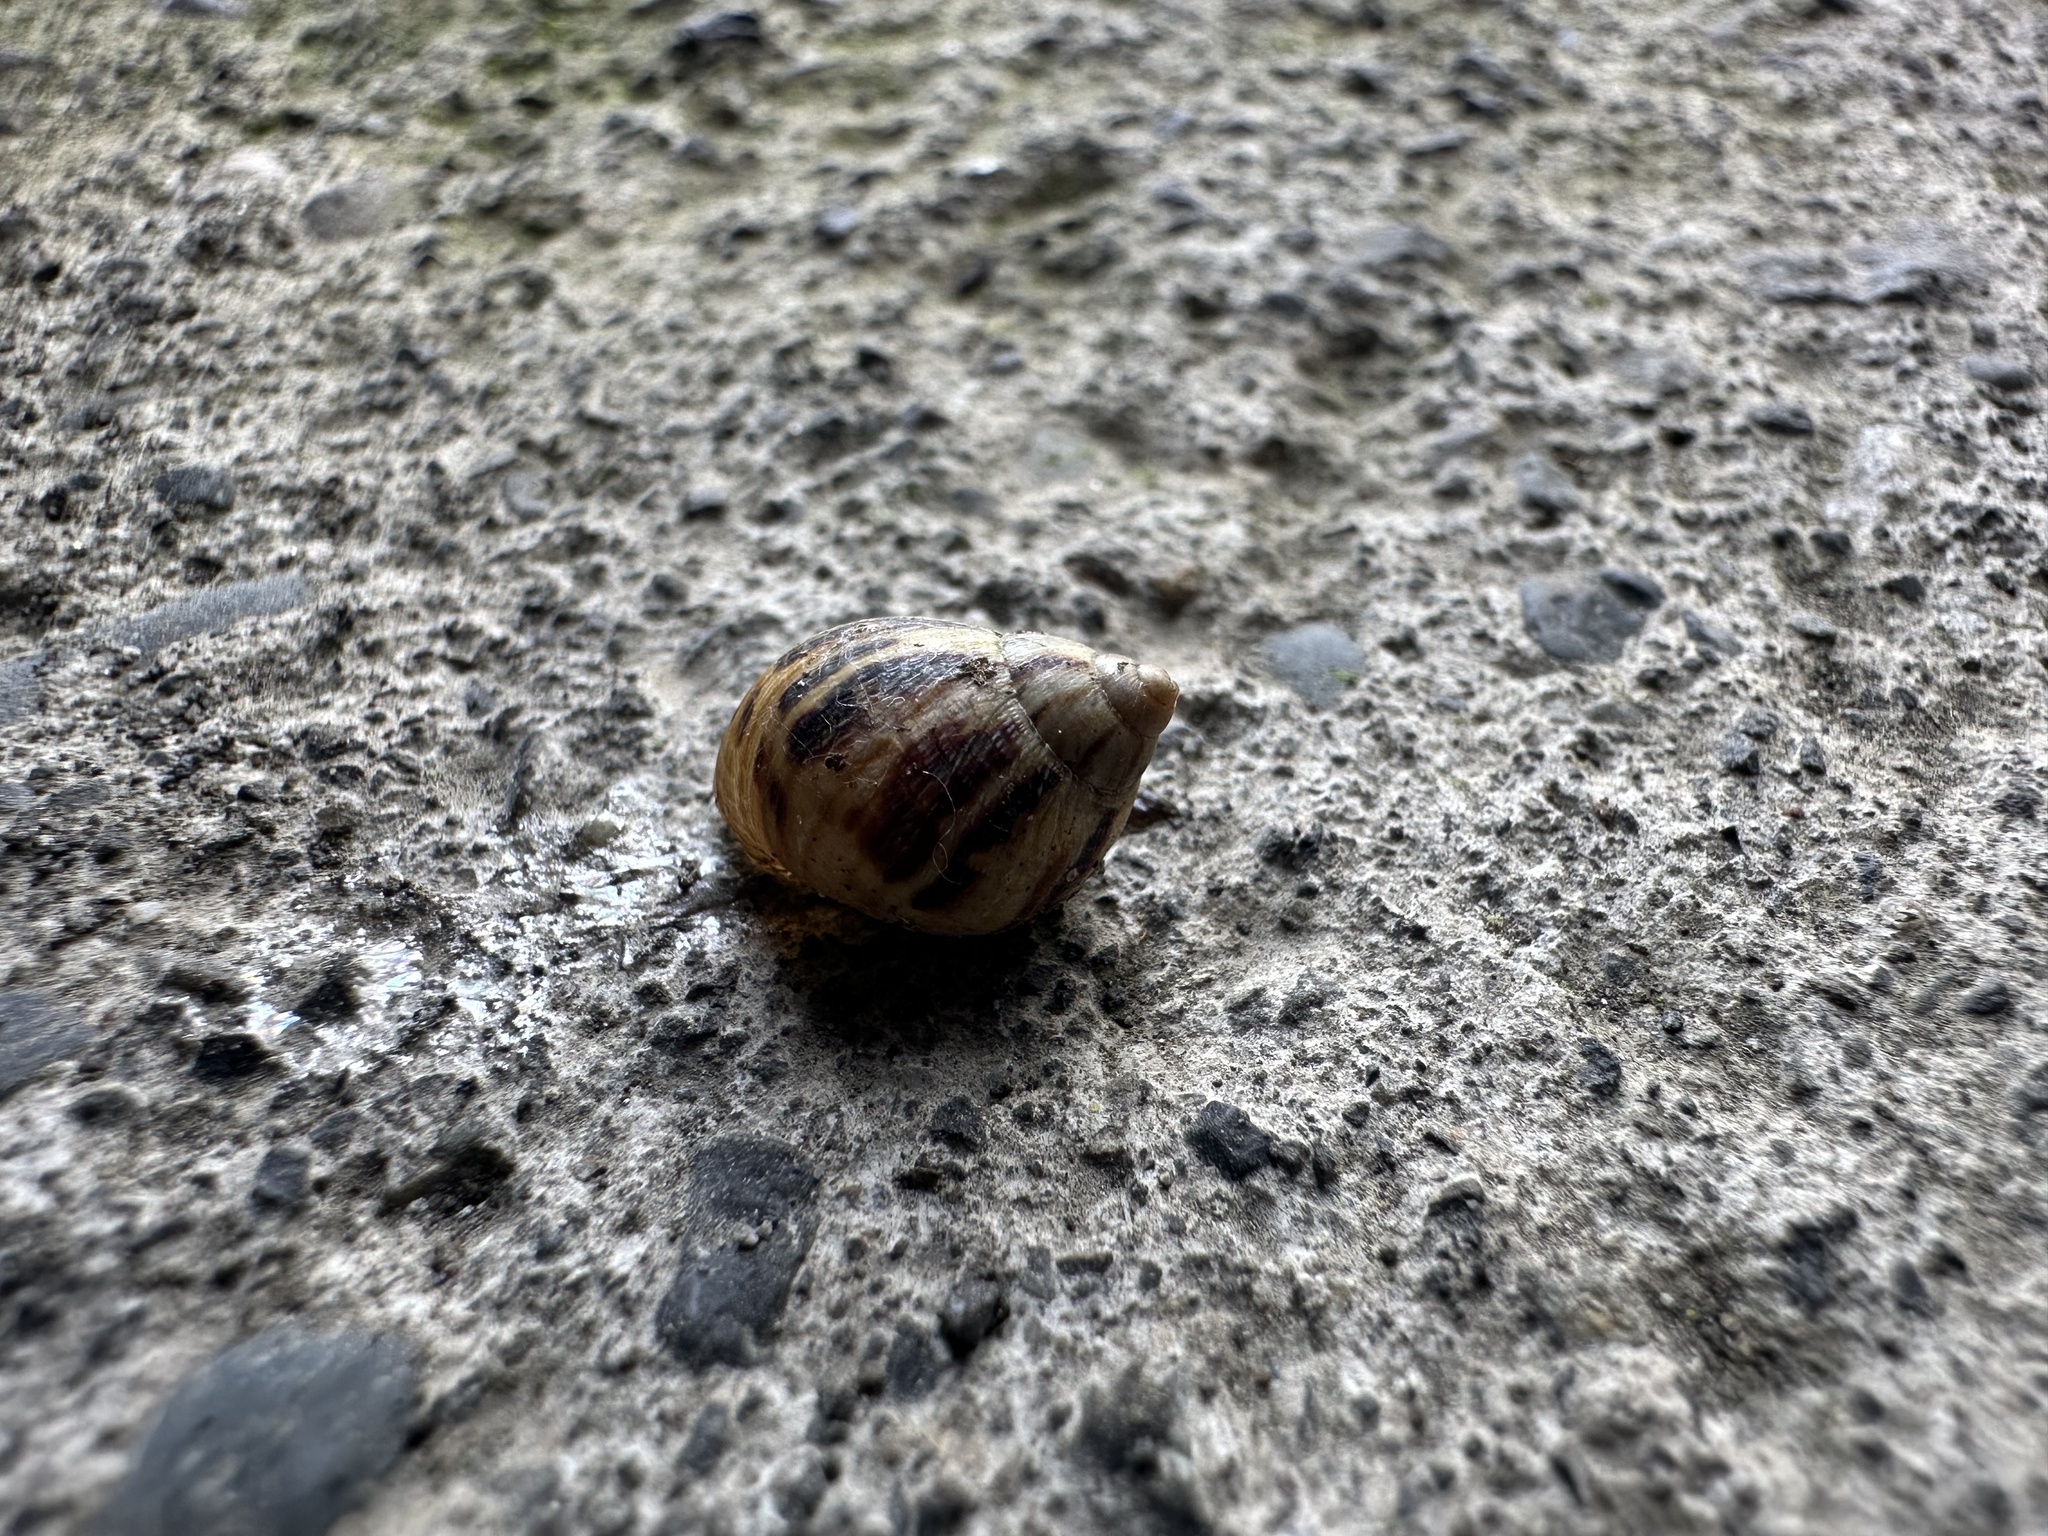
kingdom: Animalia
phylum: Mollusca
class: Gastropoda
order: Stylommatophora
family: Bothriembryontidae
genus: Plectostylus
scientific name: Plectostylus
